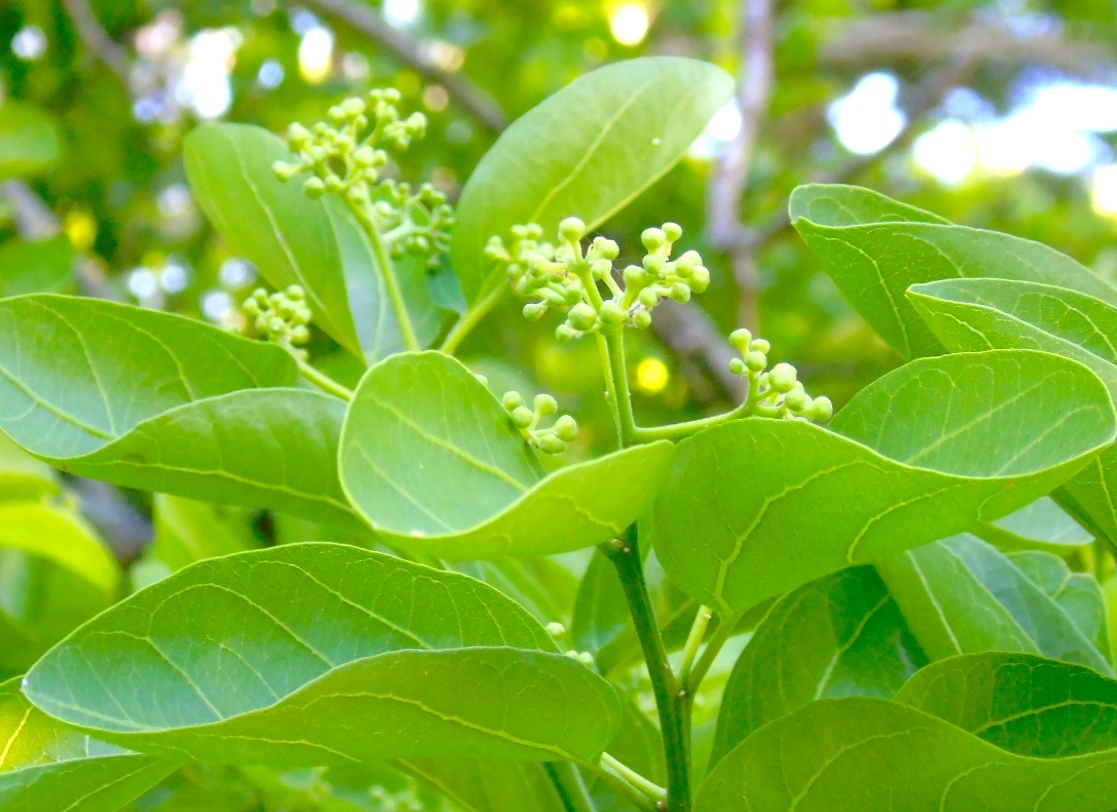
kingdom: Plantae
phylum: Tracheophyta
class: Magnoliopsida
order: Rosales
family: Rhamnaceae
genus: Sarcomphalus
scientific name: Sarcomphalus amole
